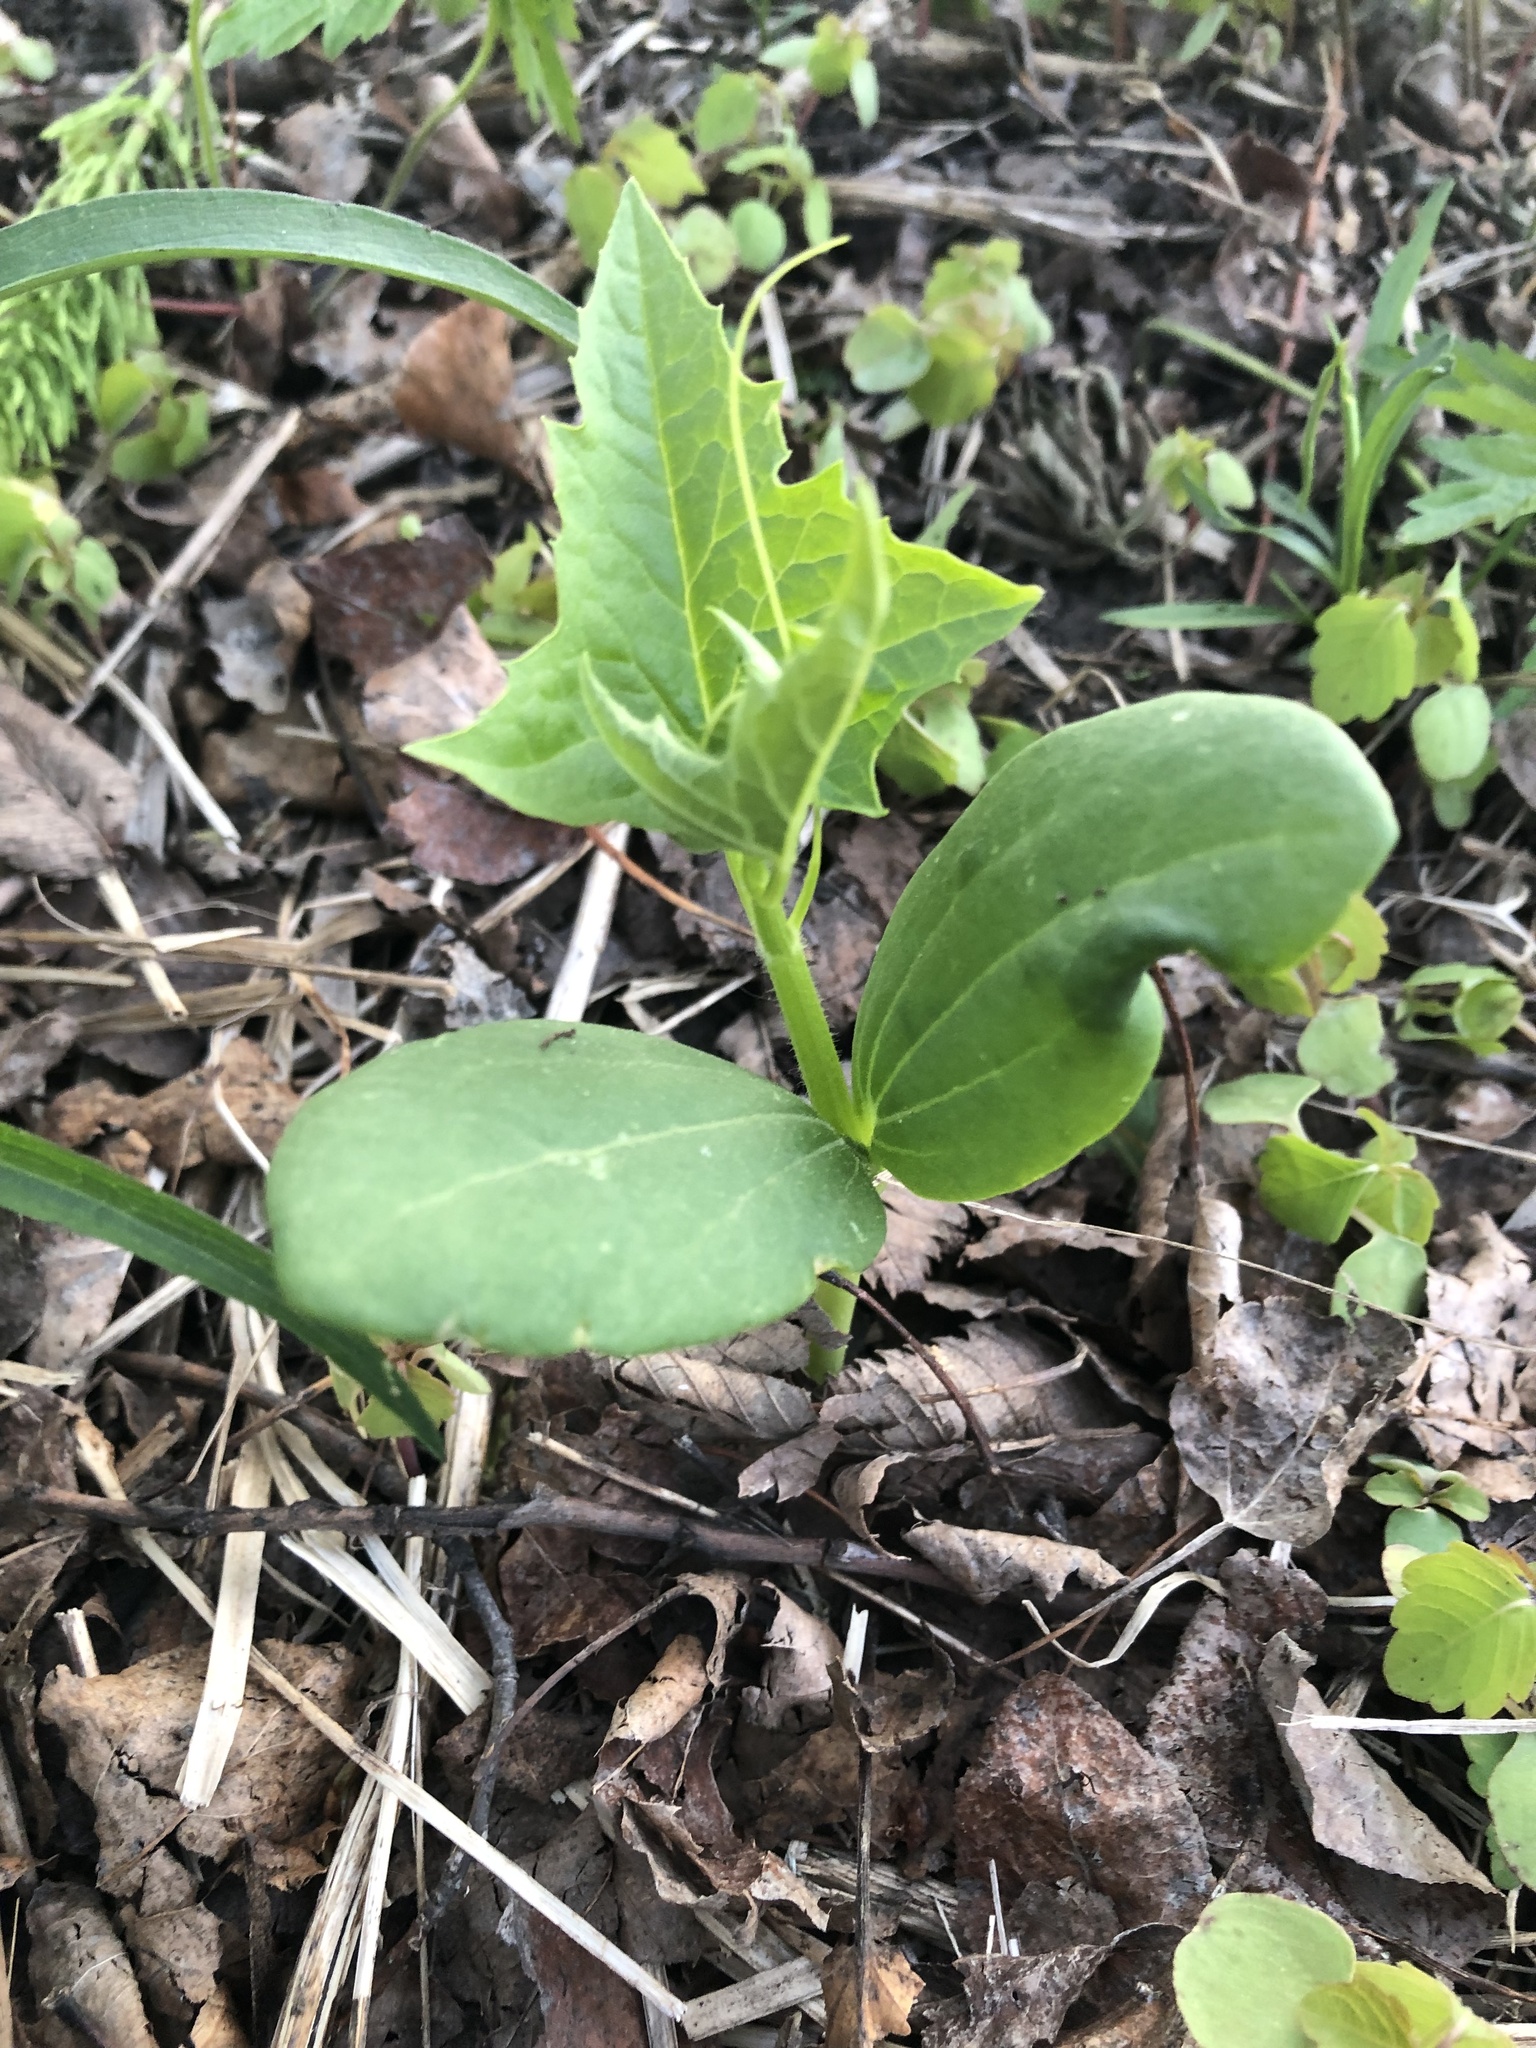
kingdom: Plantae
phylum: Tracheophyta
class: Magnoliopsida
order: Cucurbitales
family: Cucurbitaceae
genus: Echinocystis
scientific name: Echinocystis lobata
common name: Wild cucumber
